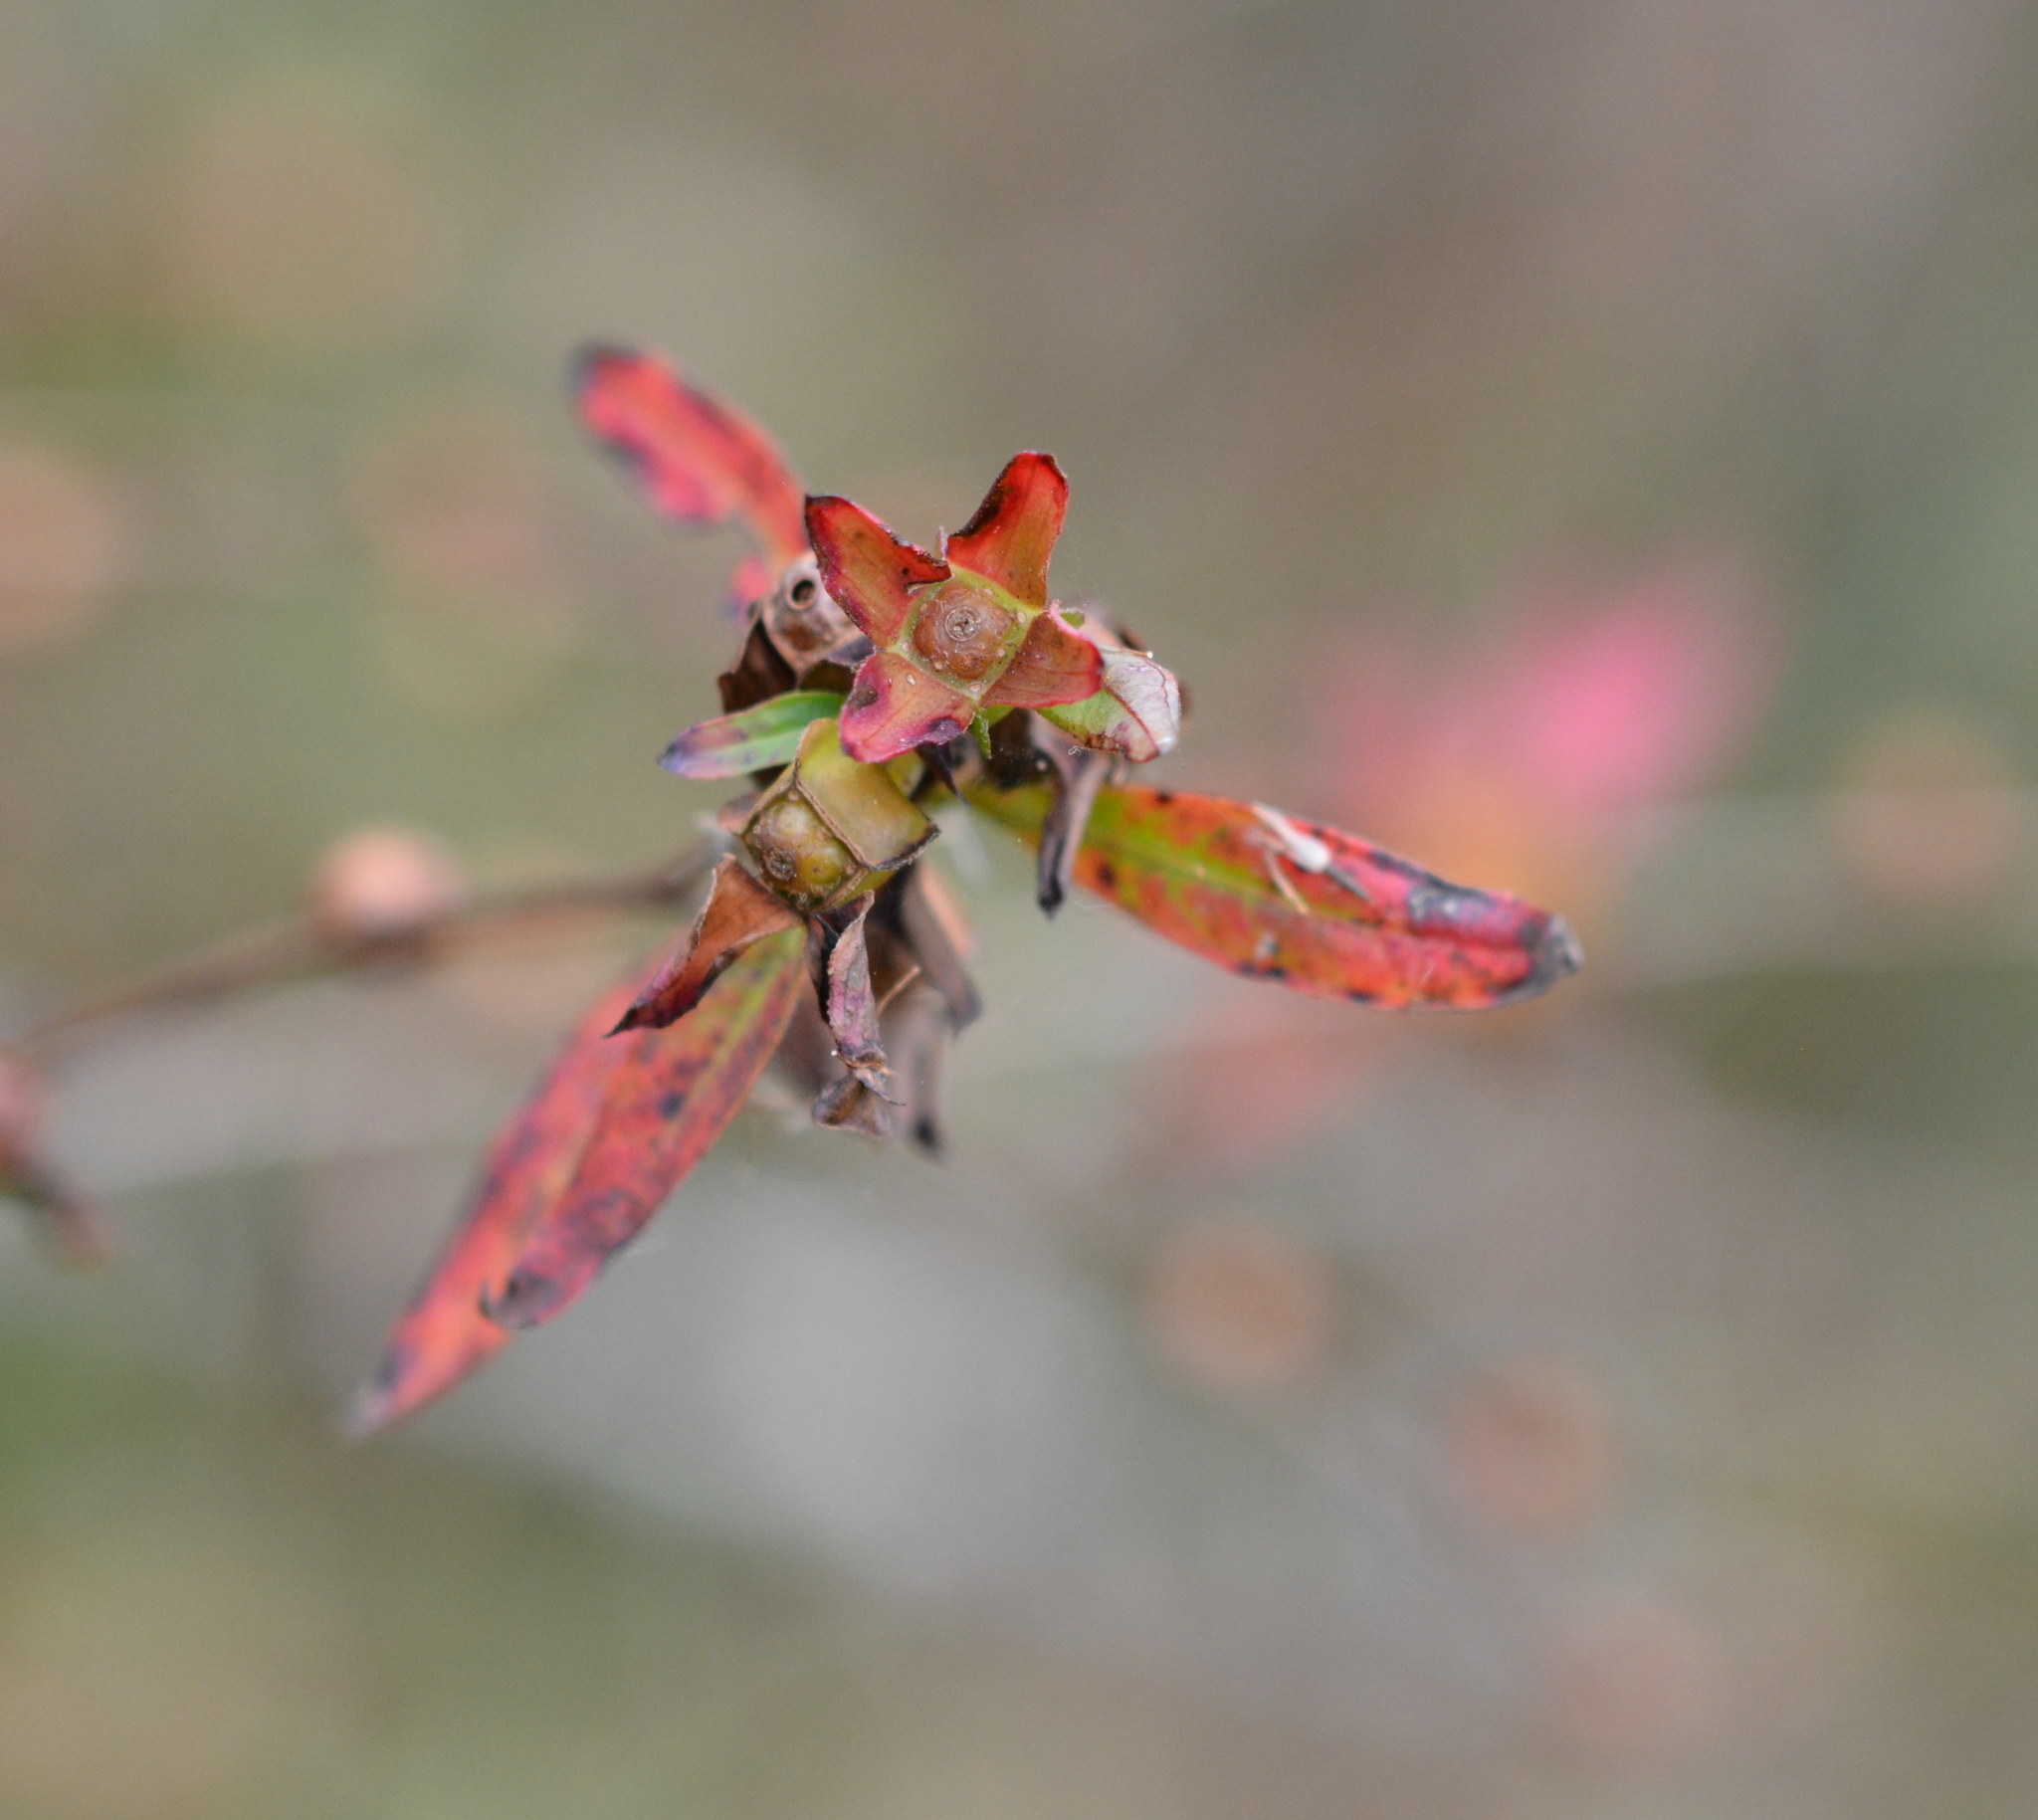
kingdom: Plantae
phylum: Tracheophyta
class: Magnoliopsida
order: Myrtales
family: Onagraceae
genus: Ludwigia
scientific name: Ludwigia alternifolia
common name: Rattlebox
